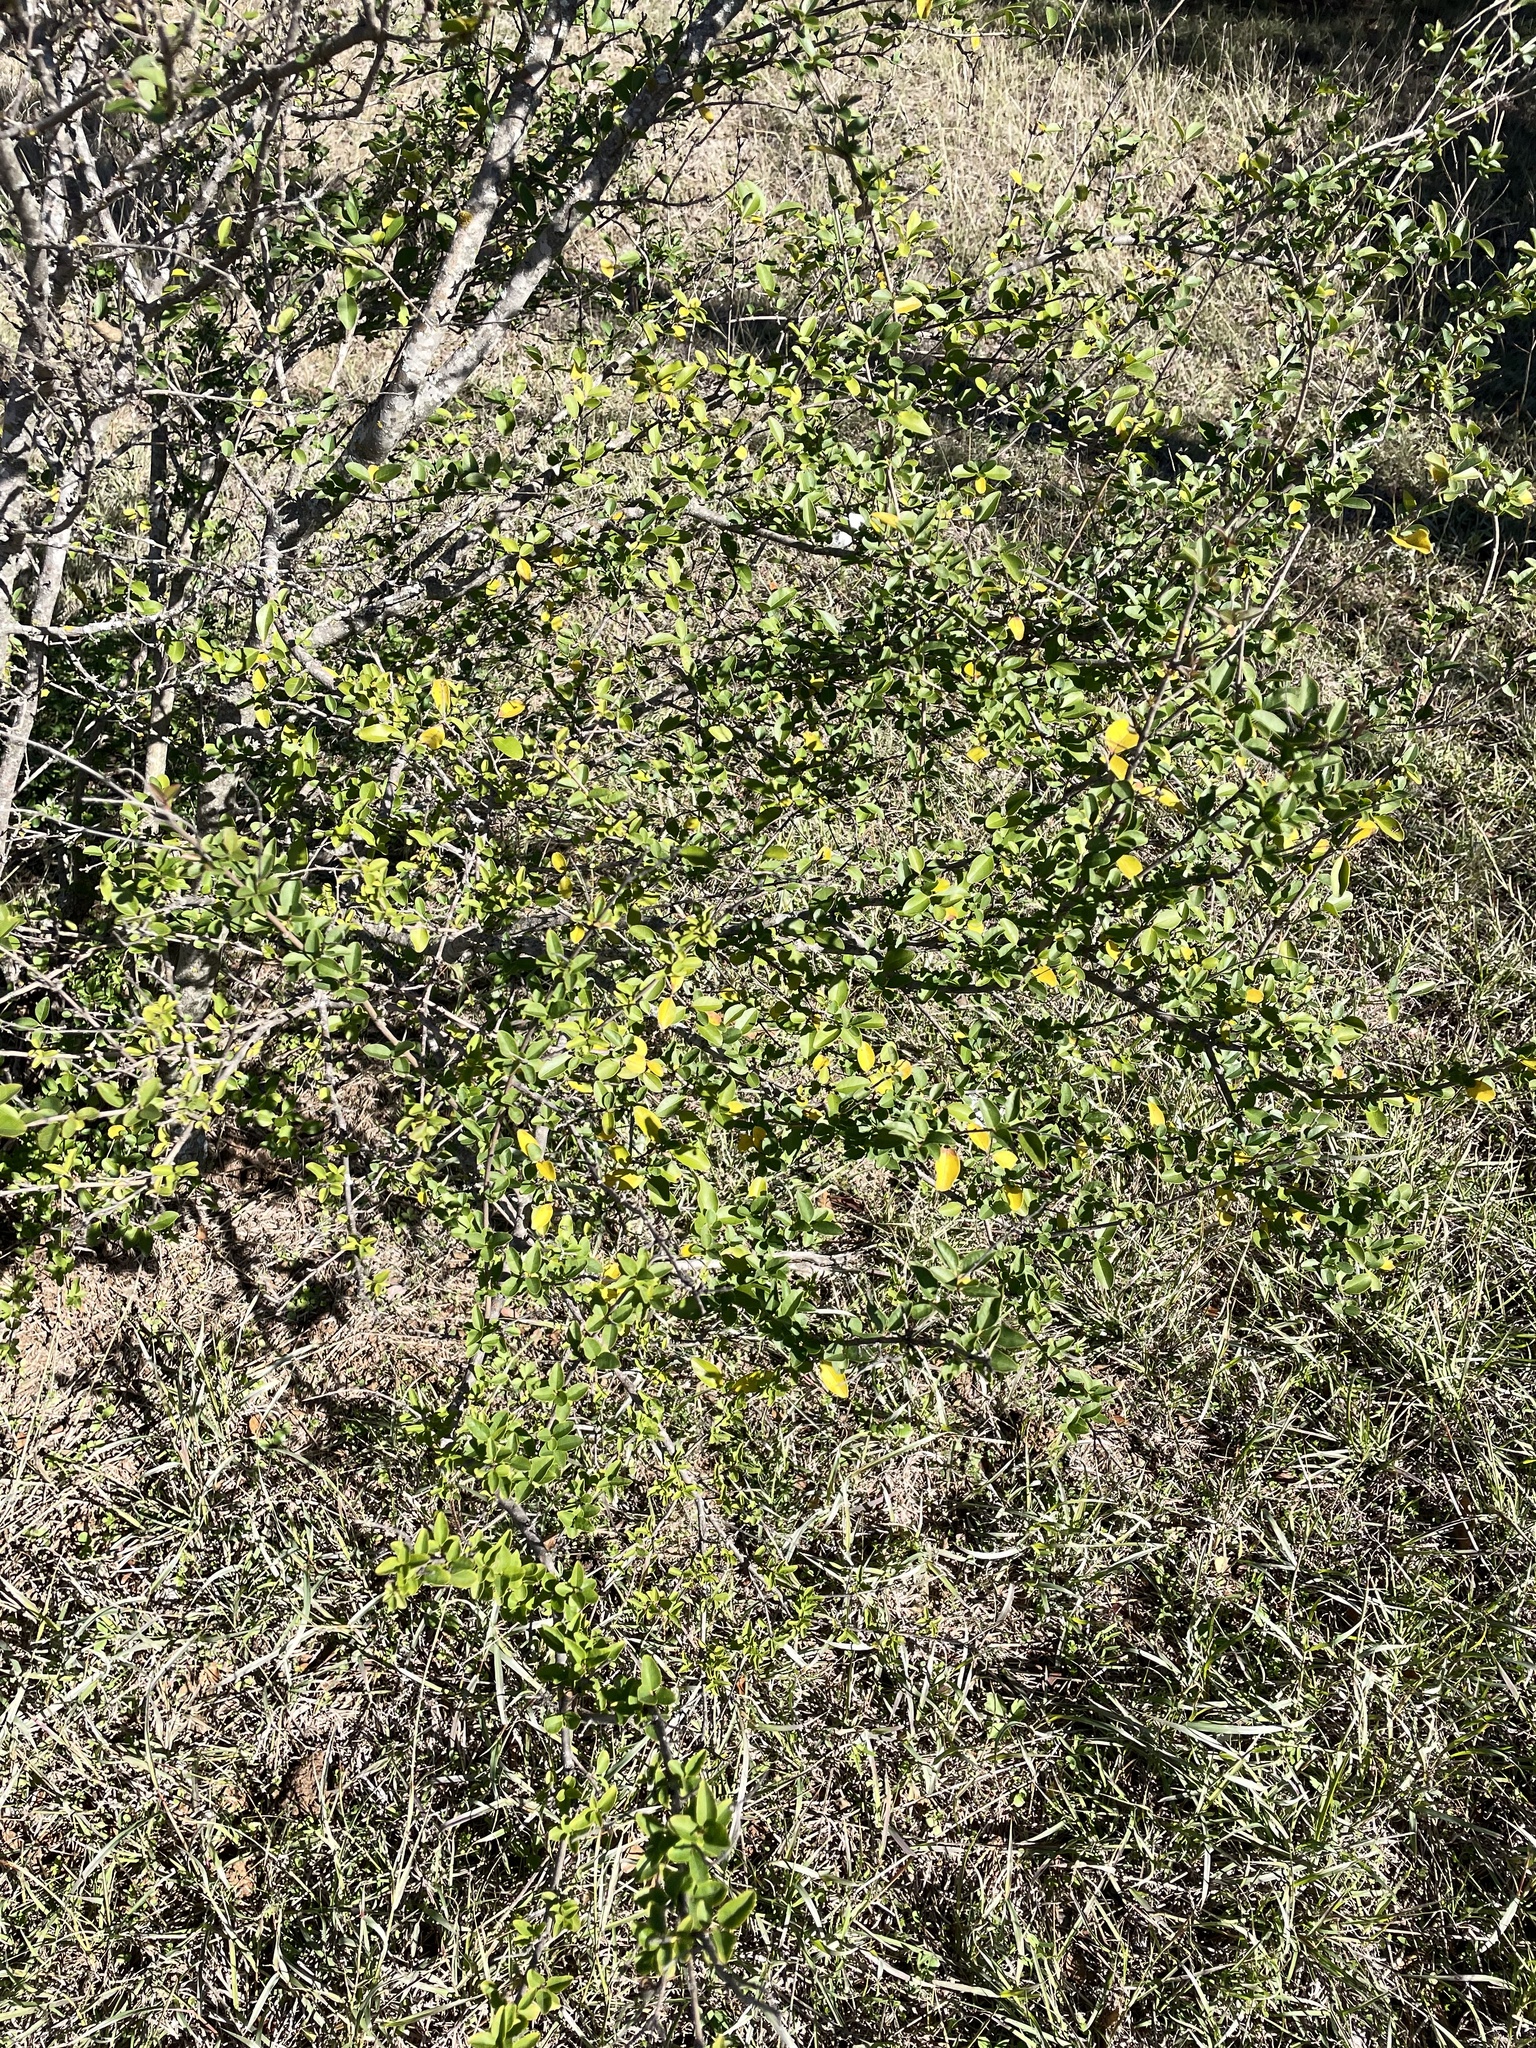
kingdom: Plantae
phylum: Tracheophyta
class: Magnoliopsida
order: Lamiales
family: Oleaceae
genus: Ligustrum
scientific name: Ligustrum sinense
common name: Chinese privet
